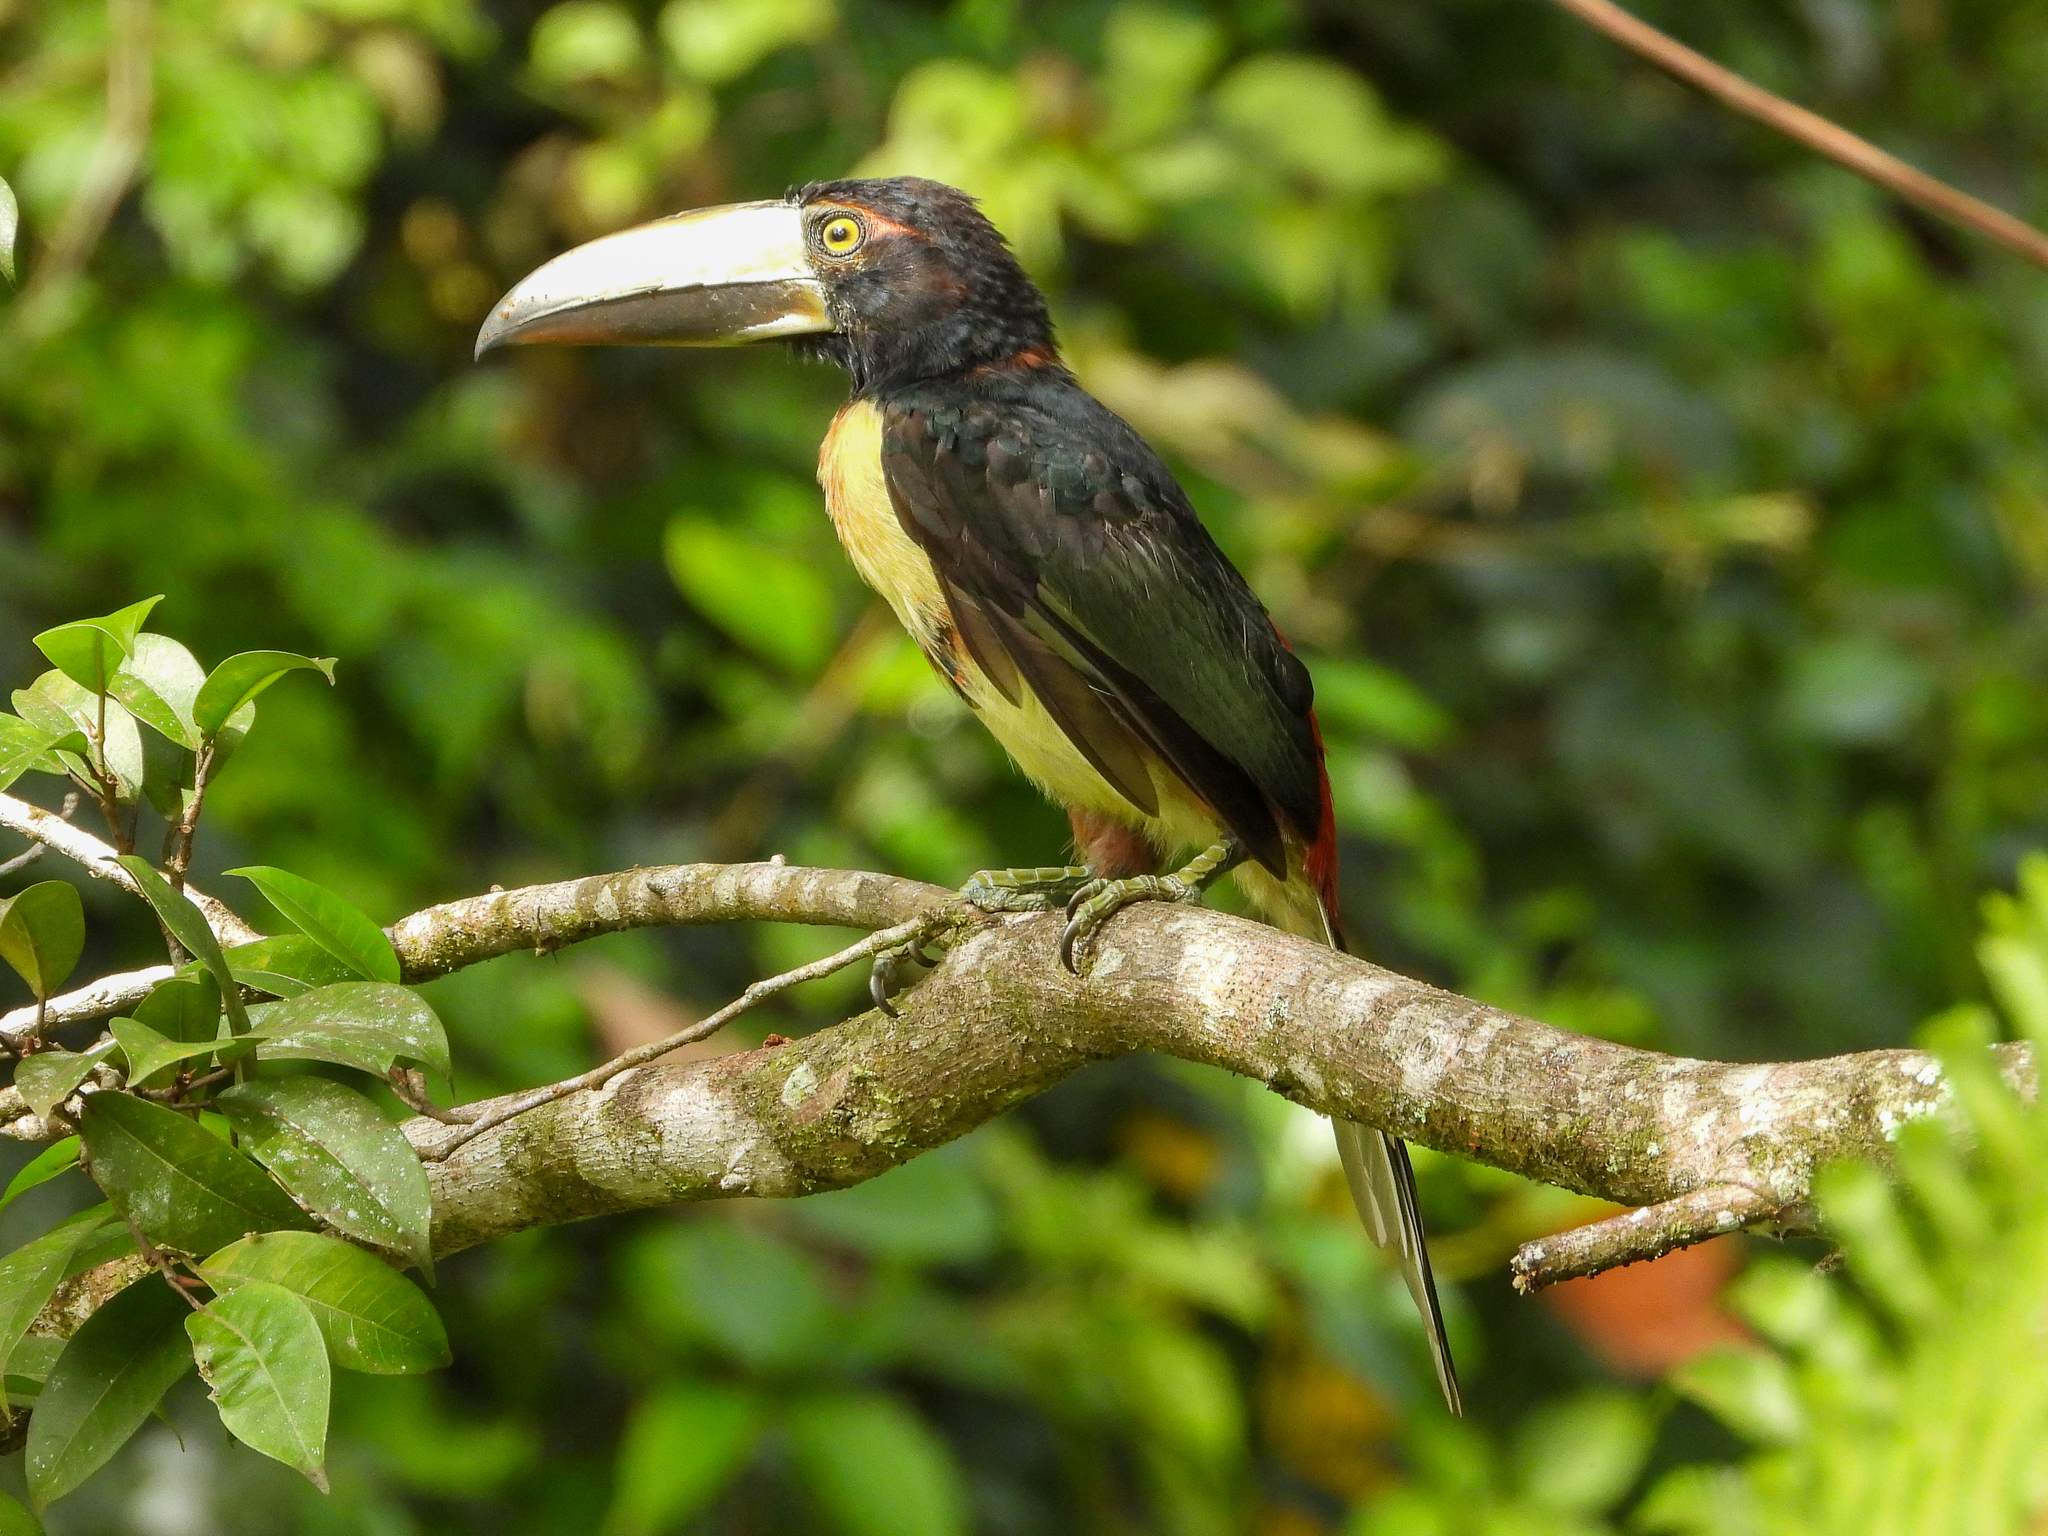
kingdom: Animalia
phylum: Chordata
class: Aves
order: Piciformes
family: Ramphastidae
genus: Pteroglossus
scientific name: Pteroglossus torquatus
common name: Collared aracari
